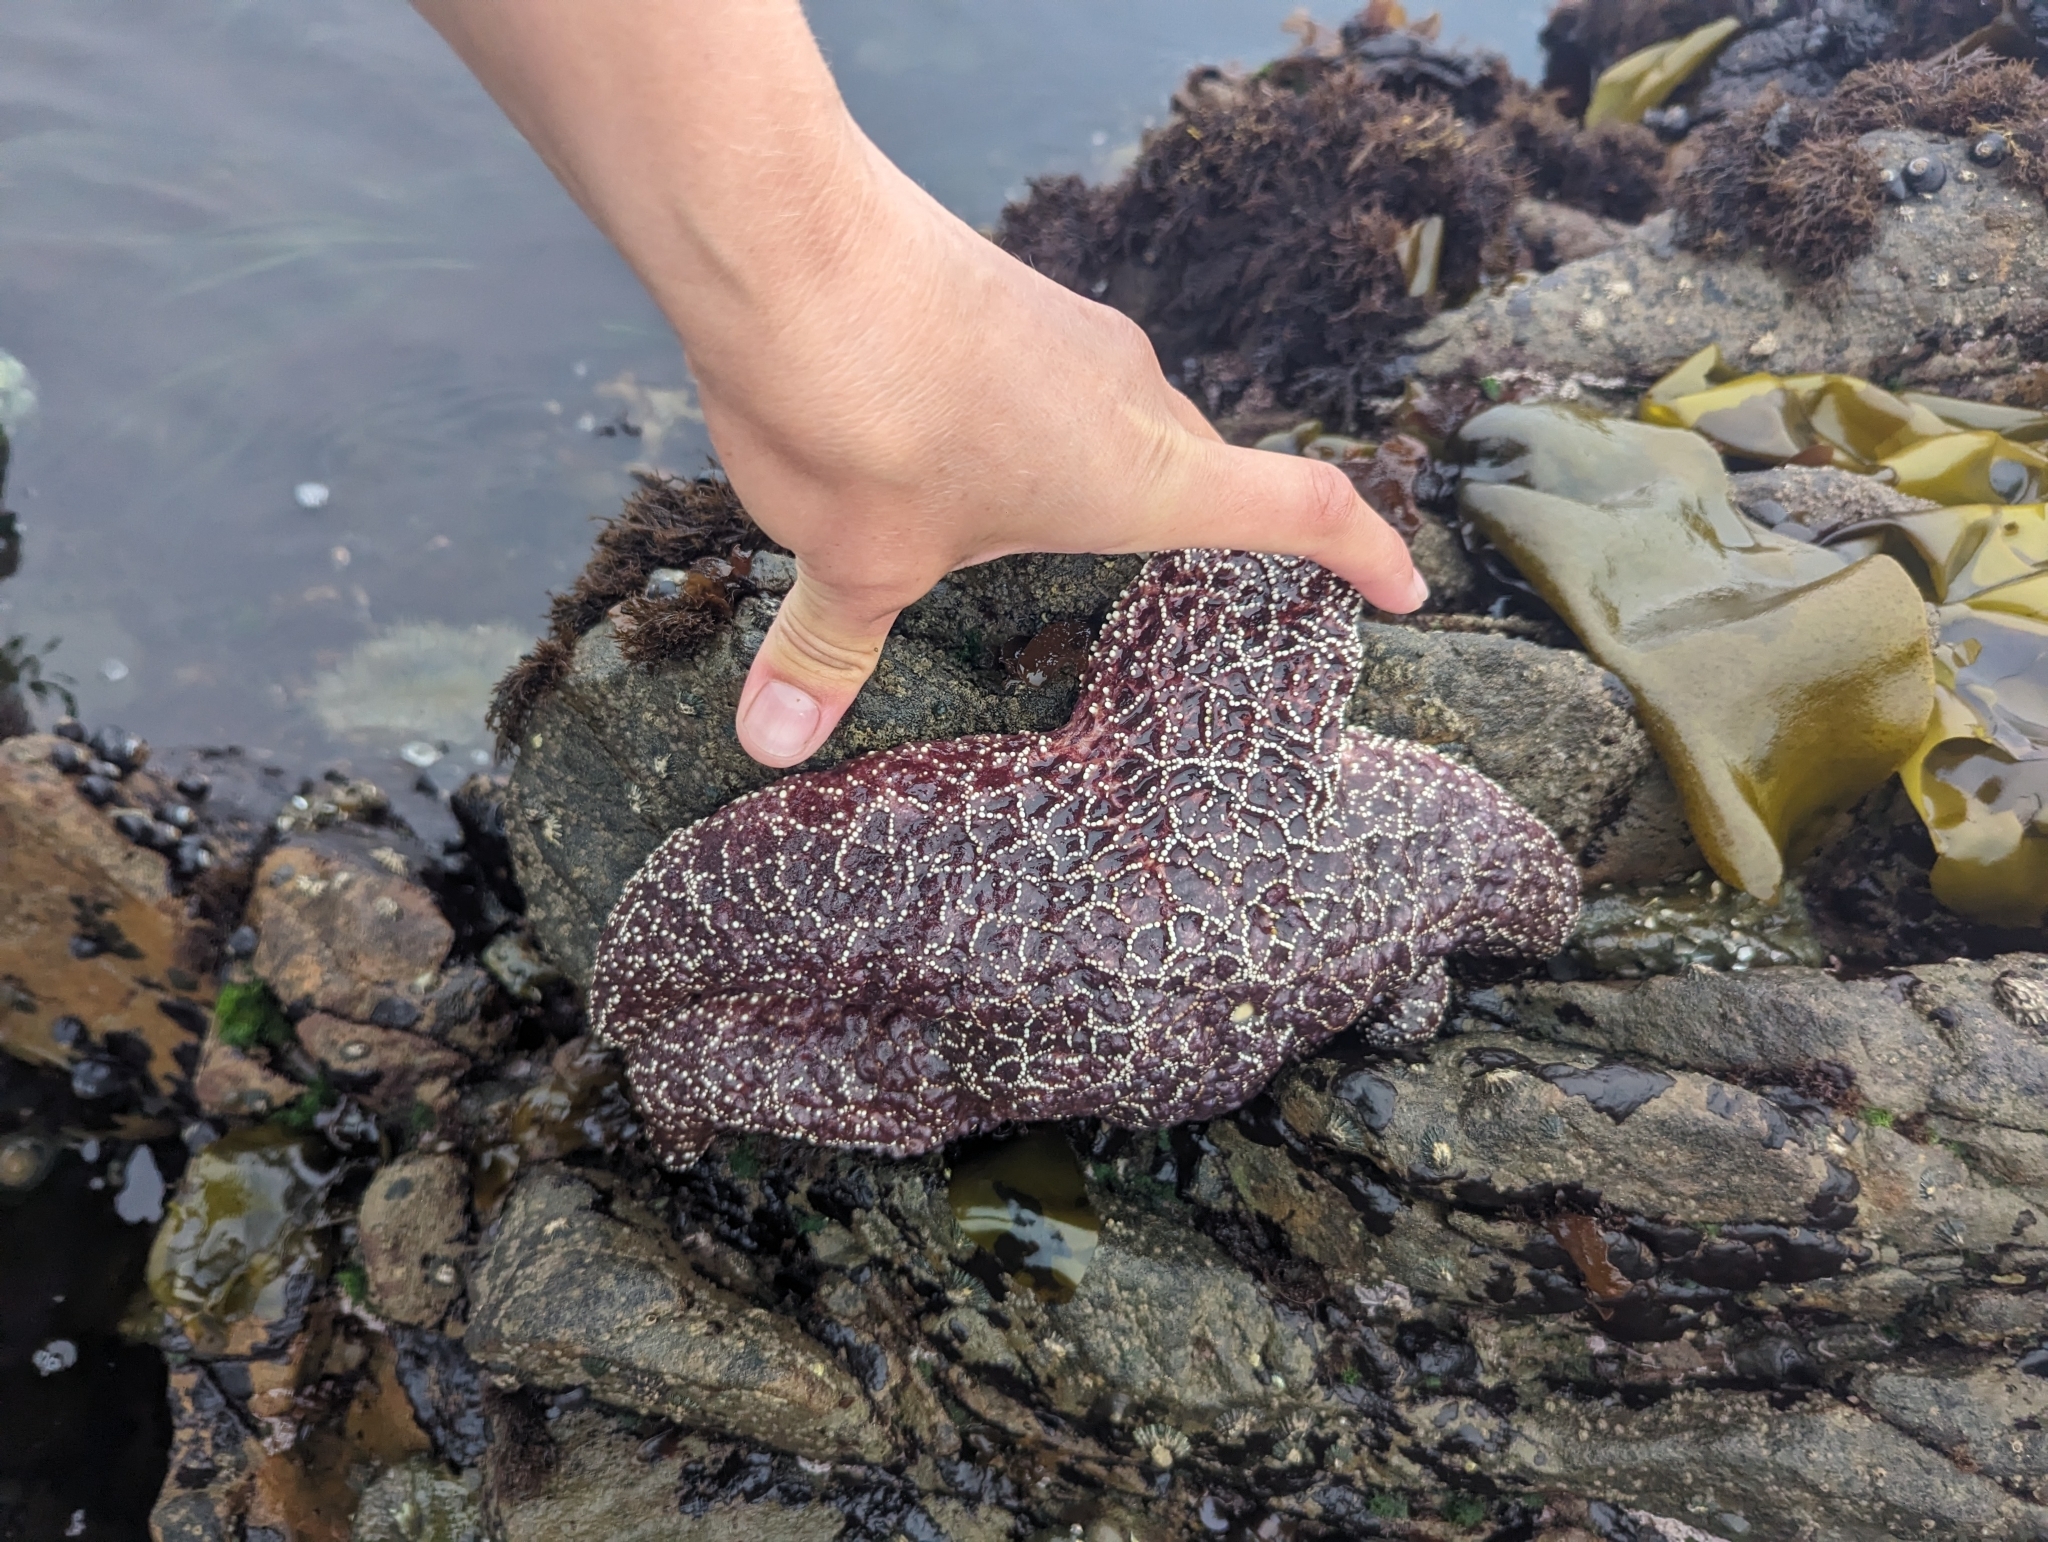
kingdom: Animalia
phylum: Echinodermata
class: Asteroidea
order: Forcipulatida
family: Asteriidae
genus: Pisaster
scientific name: Pisaster ochraceus
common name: Ochre stars
